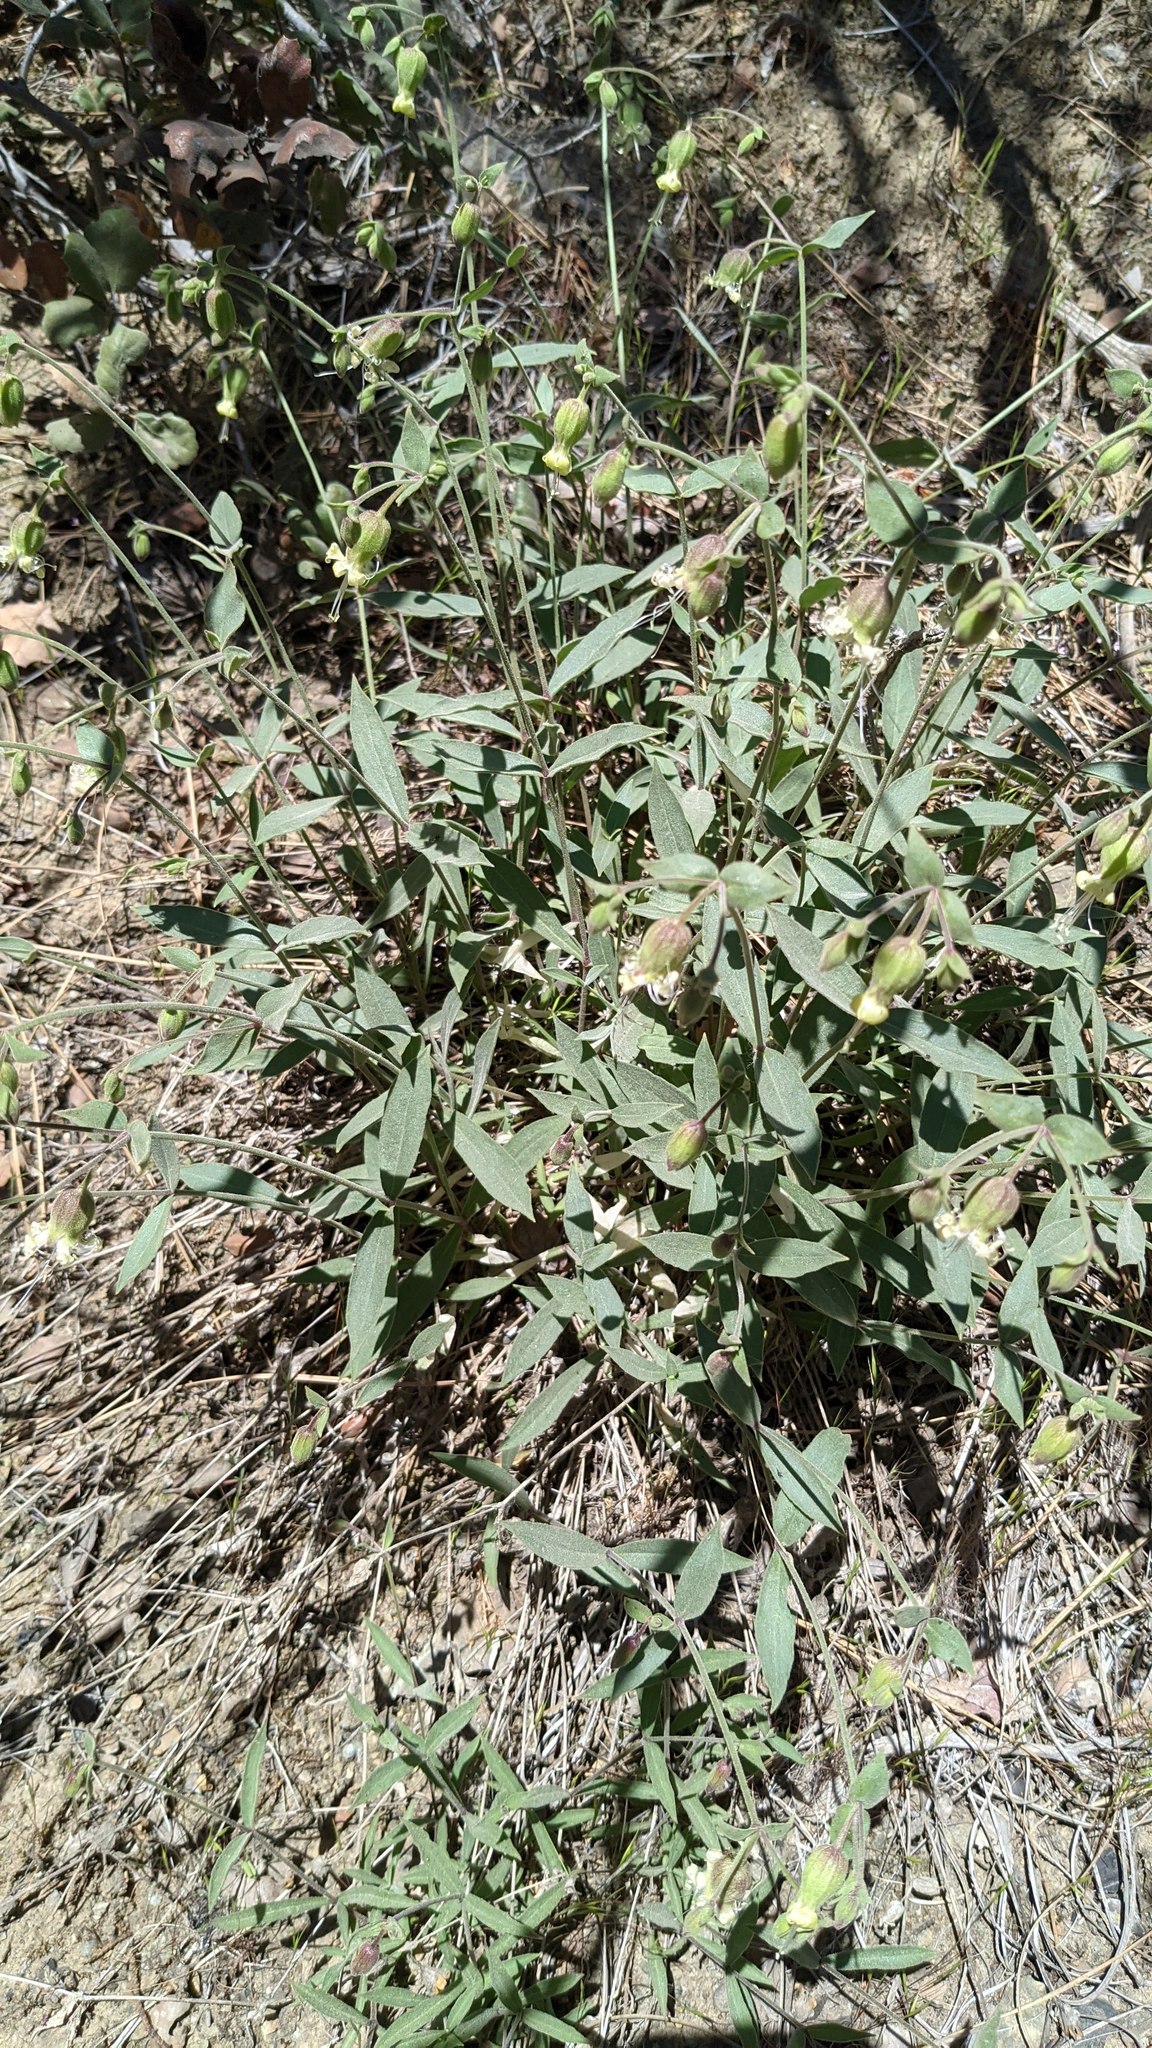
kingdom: Plantae
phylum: Tracheophyta
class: Magnoliopsida
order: Caryophyllales
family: Caryophyllaceae
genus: Silene
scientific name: Silene greenei
